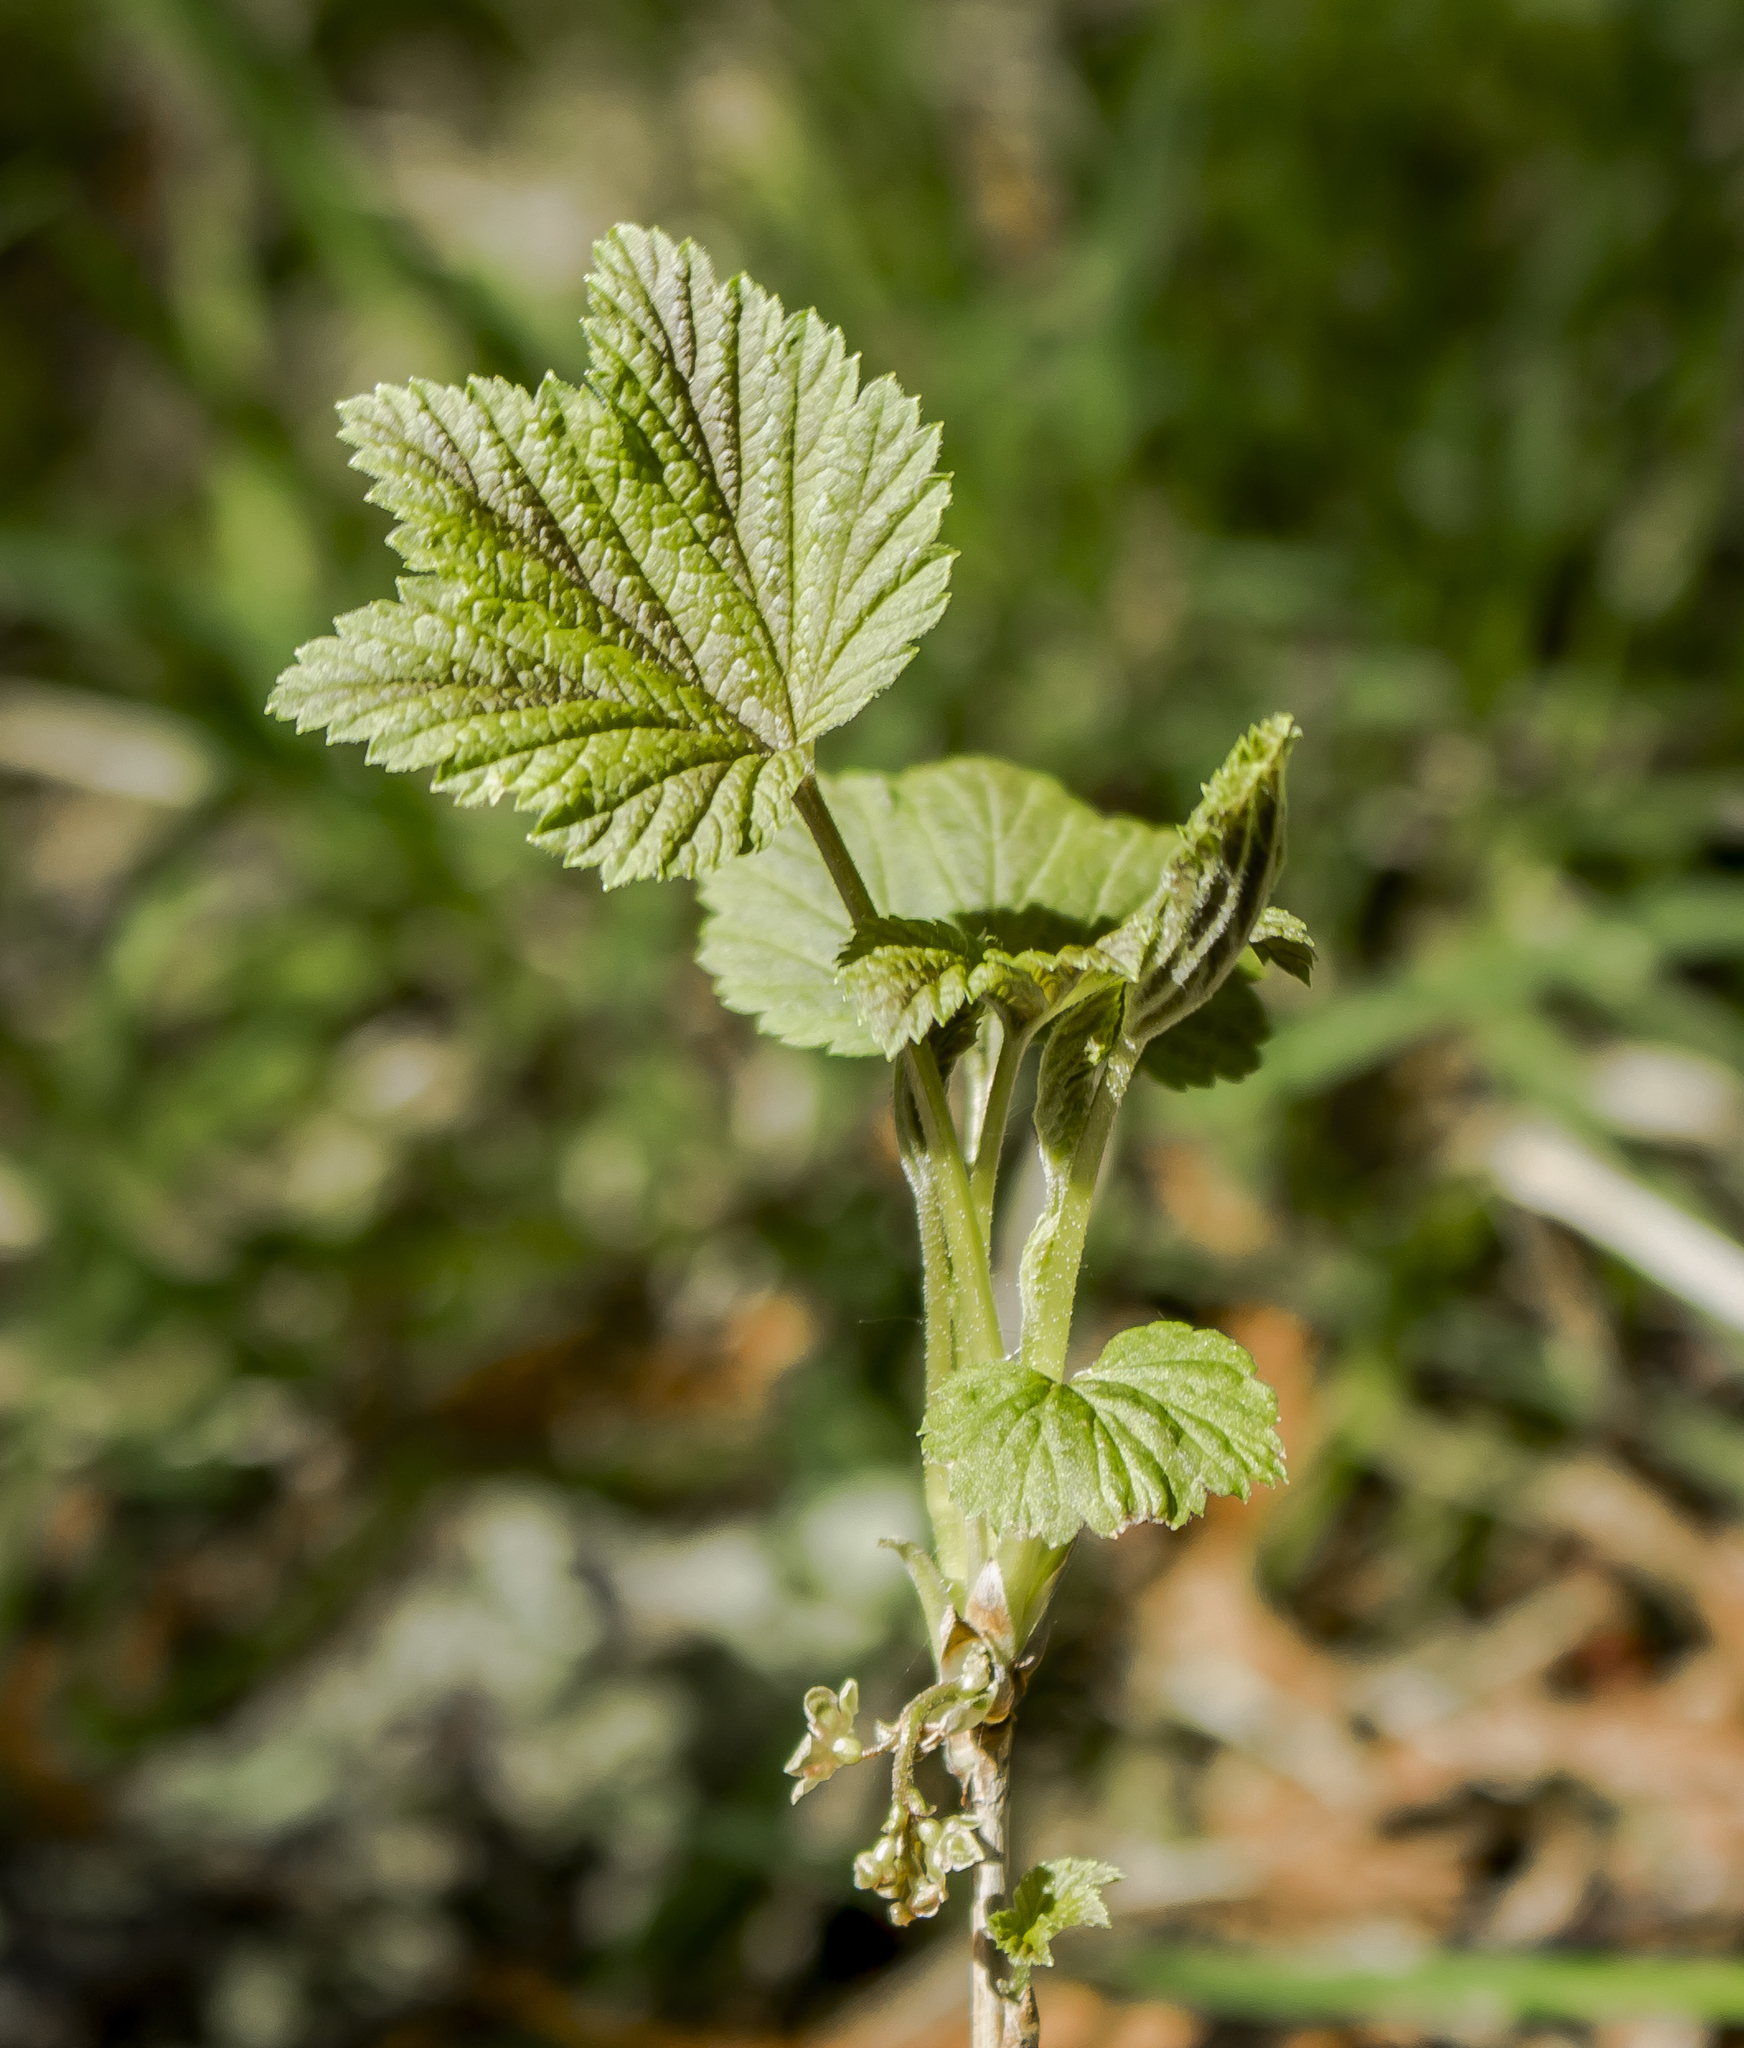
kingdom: Plantae
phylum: Tracheophyta
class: Magnoliopsida
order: Saxifragales
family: Grossulariaceae
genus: Ribes
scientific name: Ribes glandulosum
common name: Skunk currant
